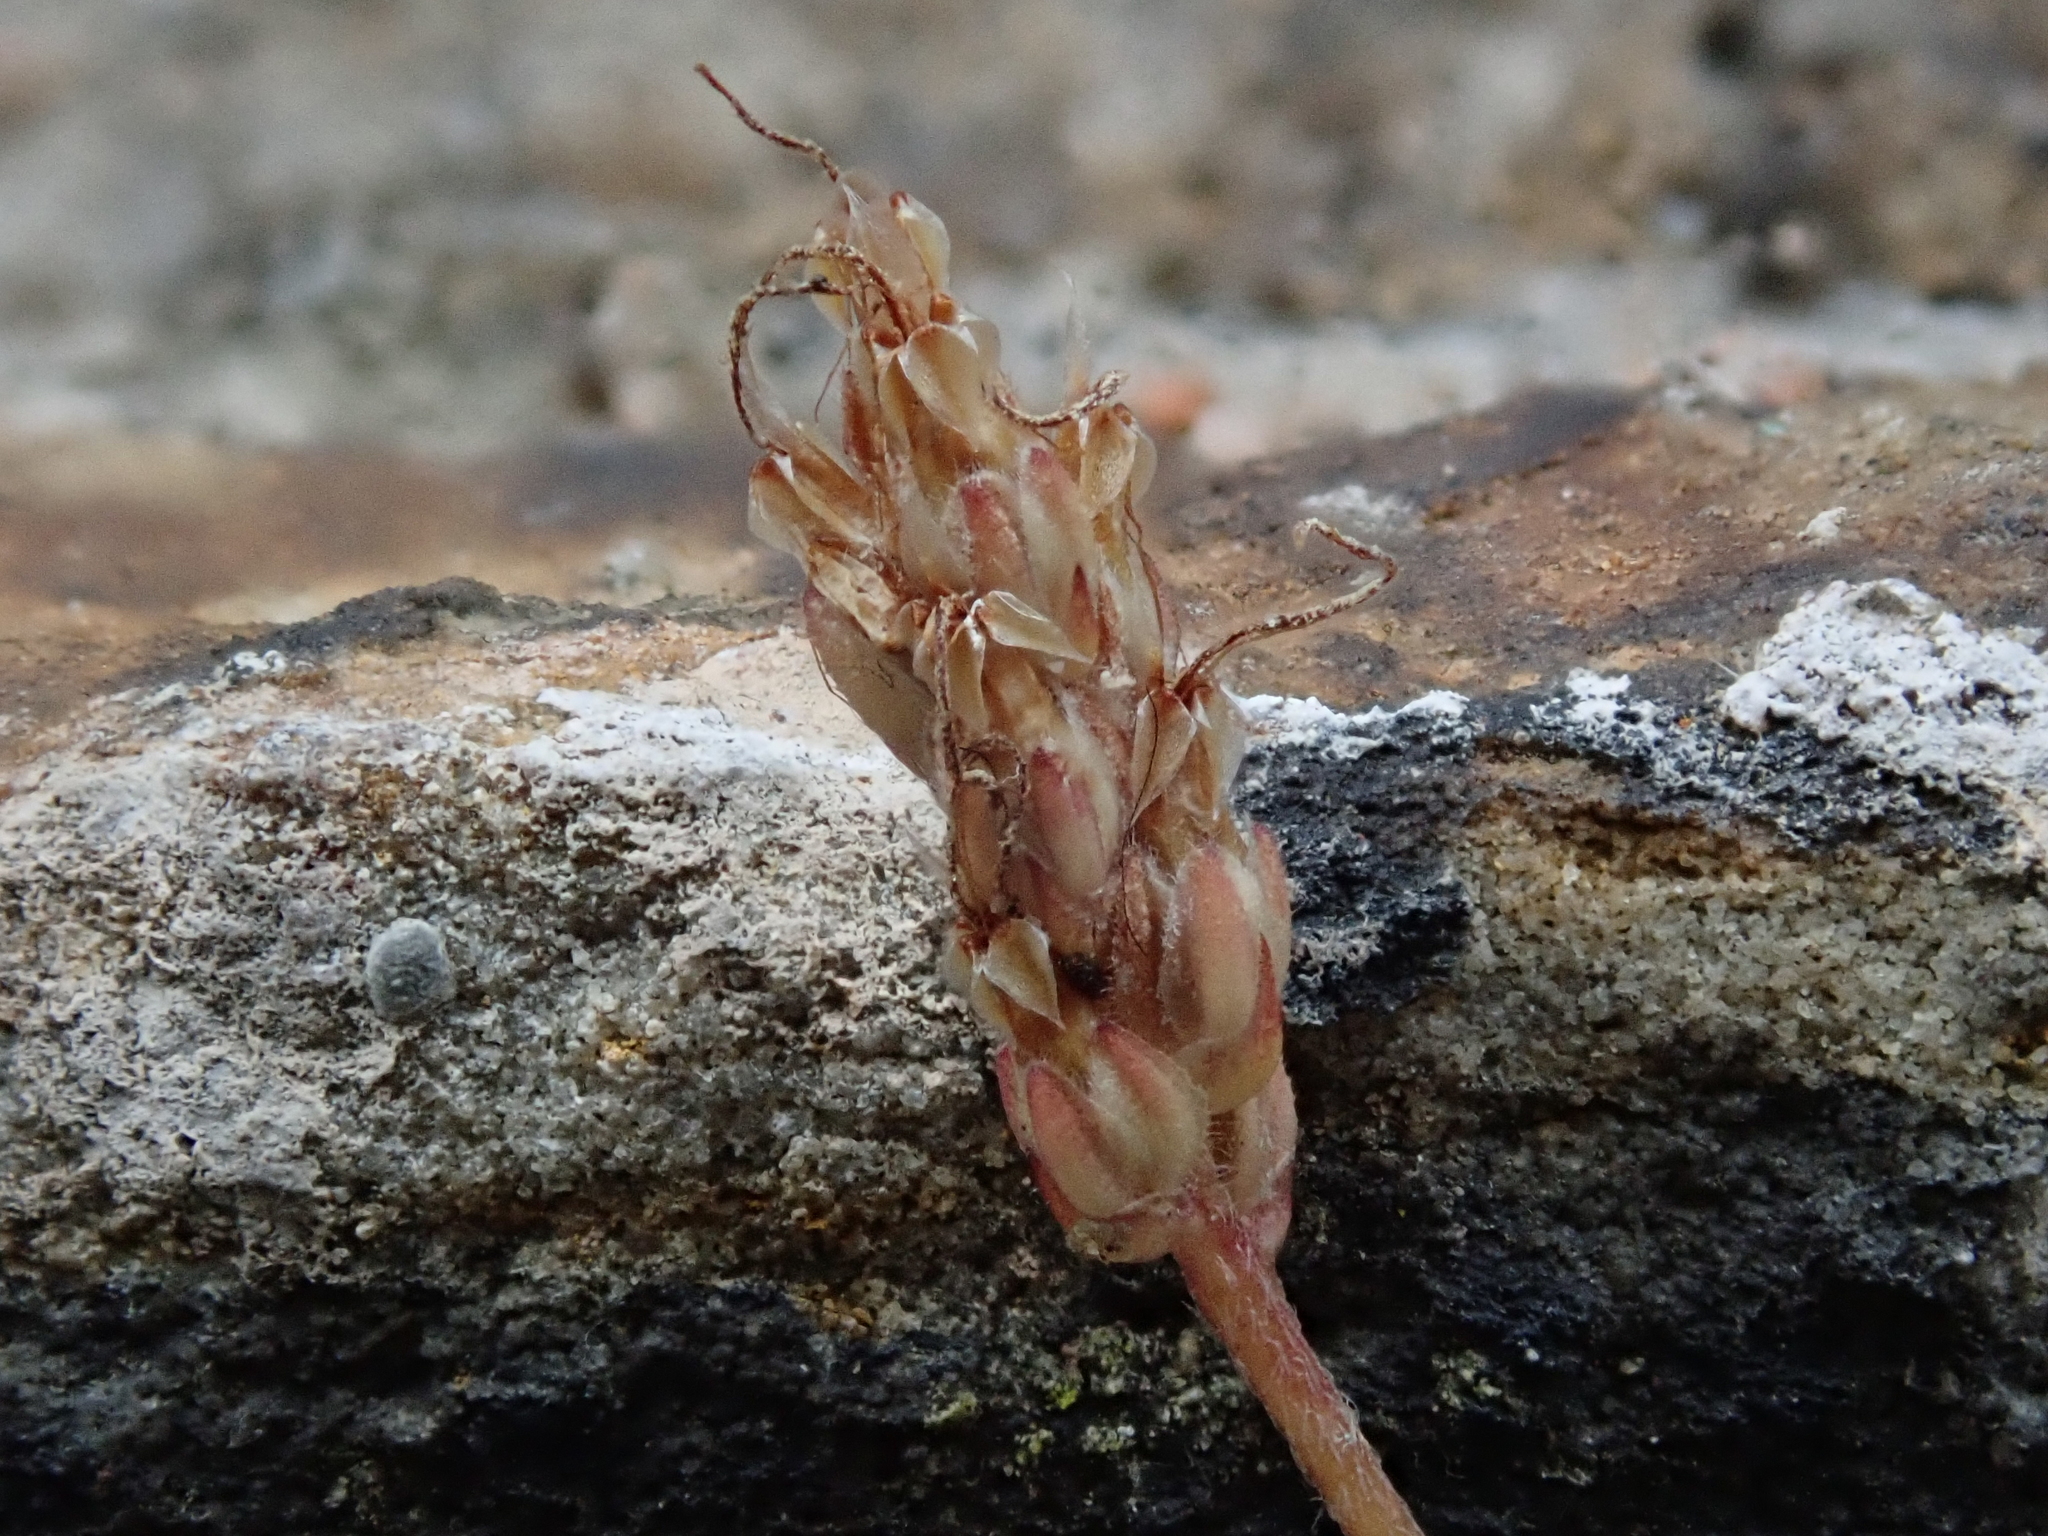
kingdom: Plantae
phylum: Tracheophyta
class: Magnoliopsida
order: Lamiales
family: Plantaginaceae
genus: Plantago
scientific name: Plantago coronopus
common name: Buck's-horn plantain
